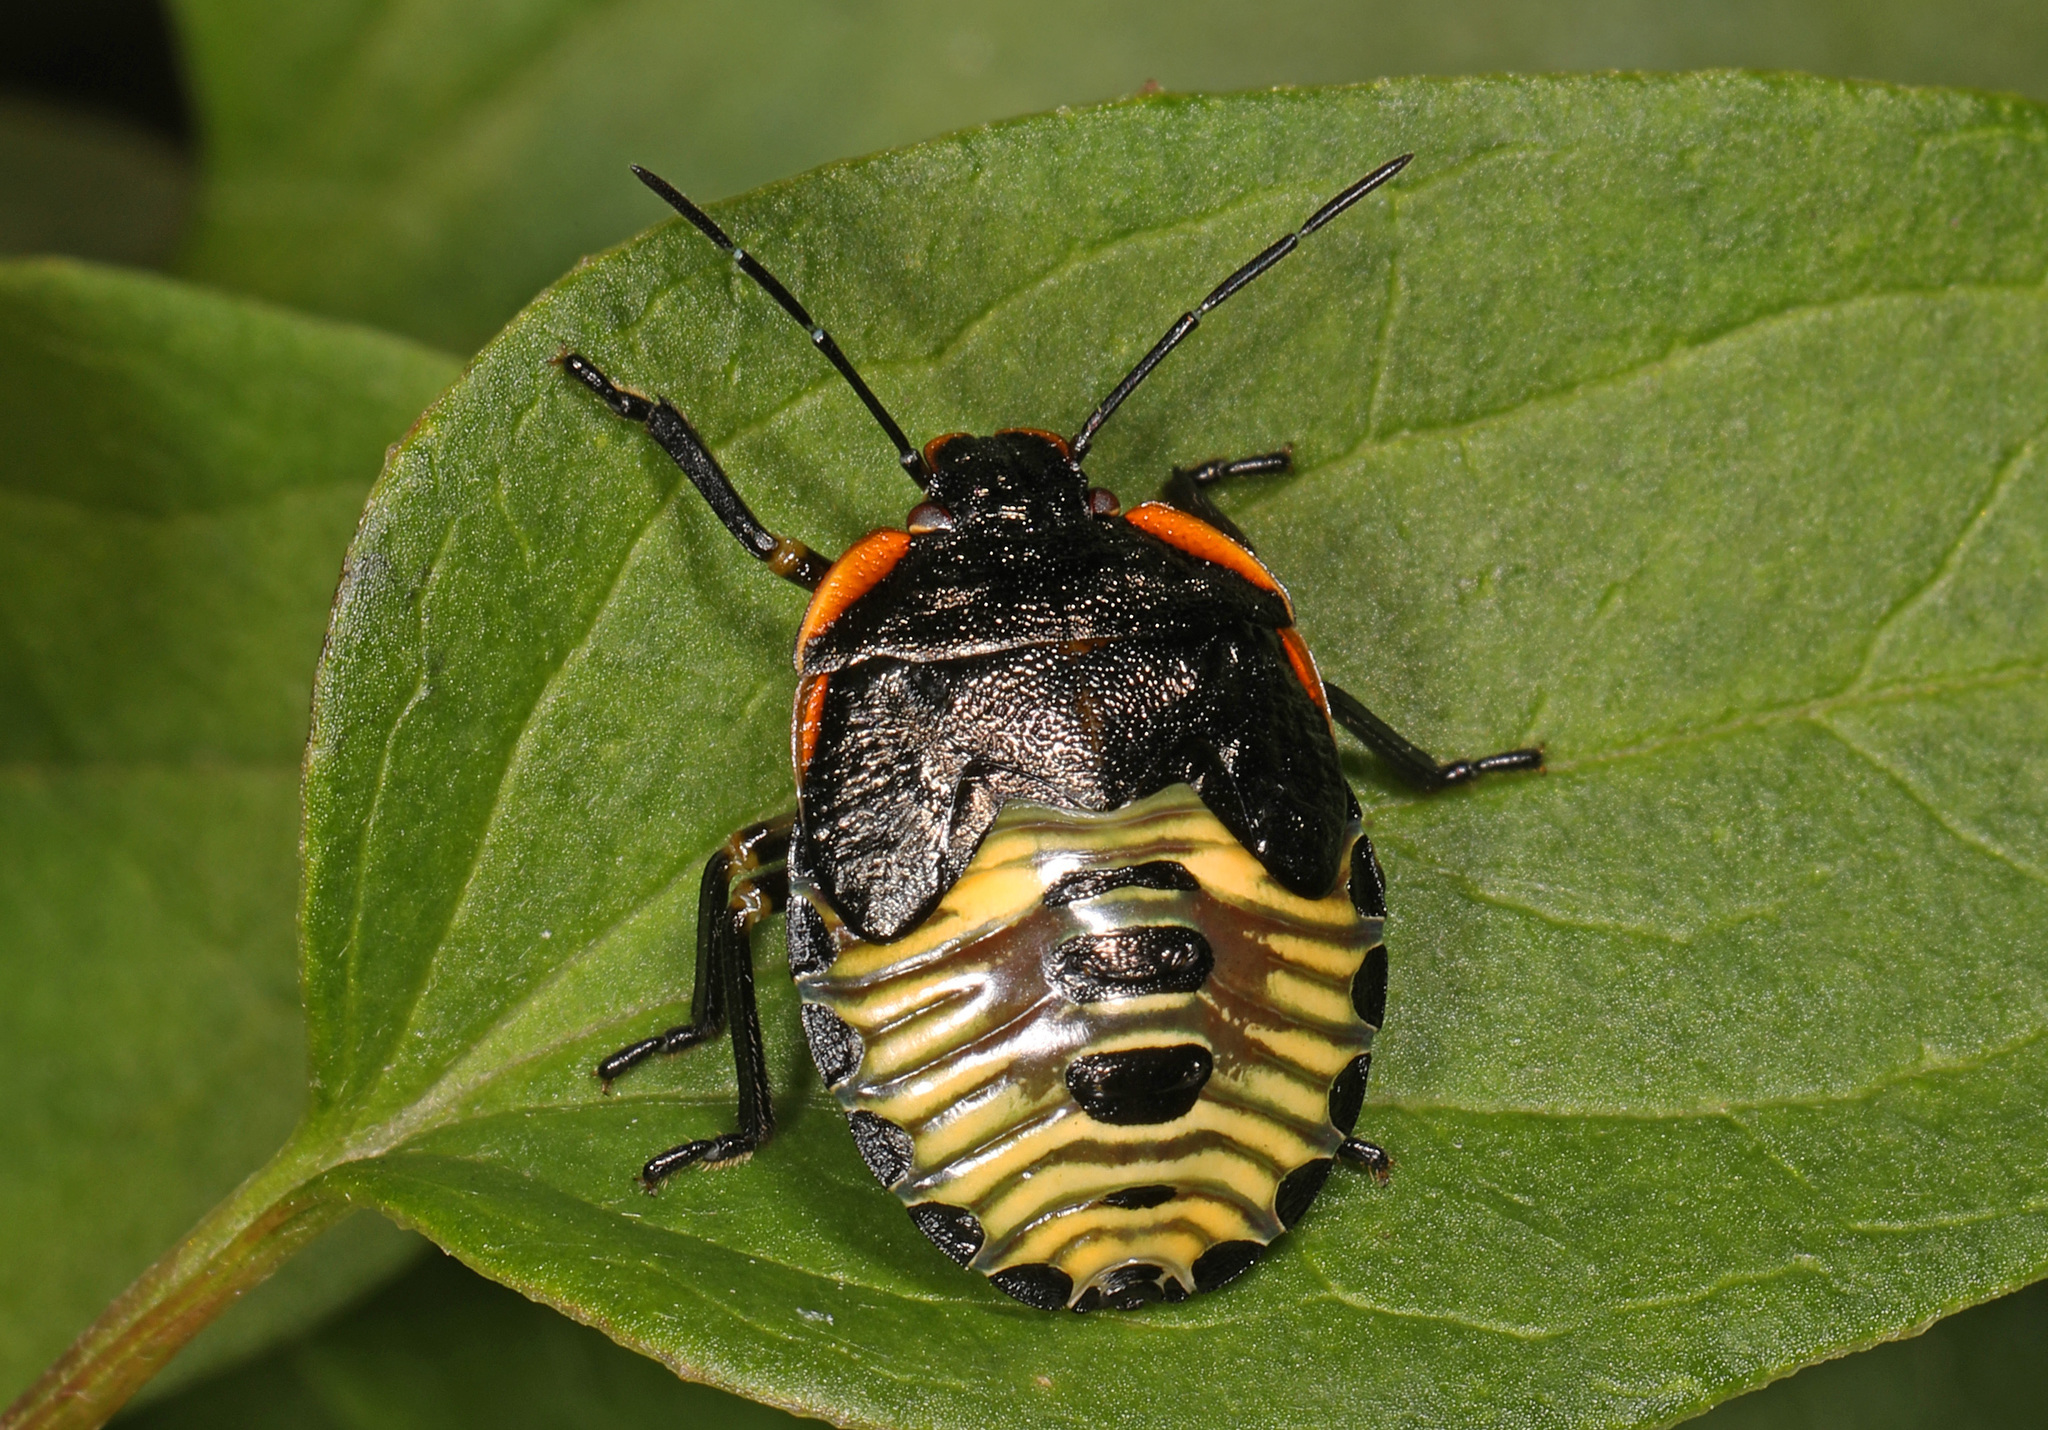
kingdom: Animalia
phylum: Arthropoda
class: Insecta
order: Hemiptera
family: Pentatomidae
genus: Chinavia
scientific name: Chinavia hilaris
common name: Green stink bug
